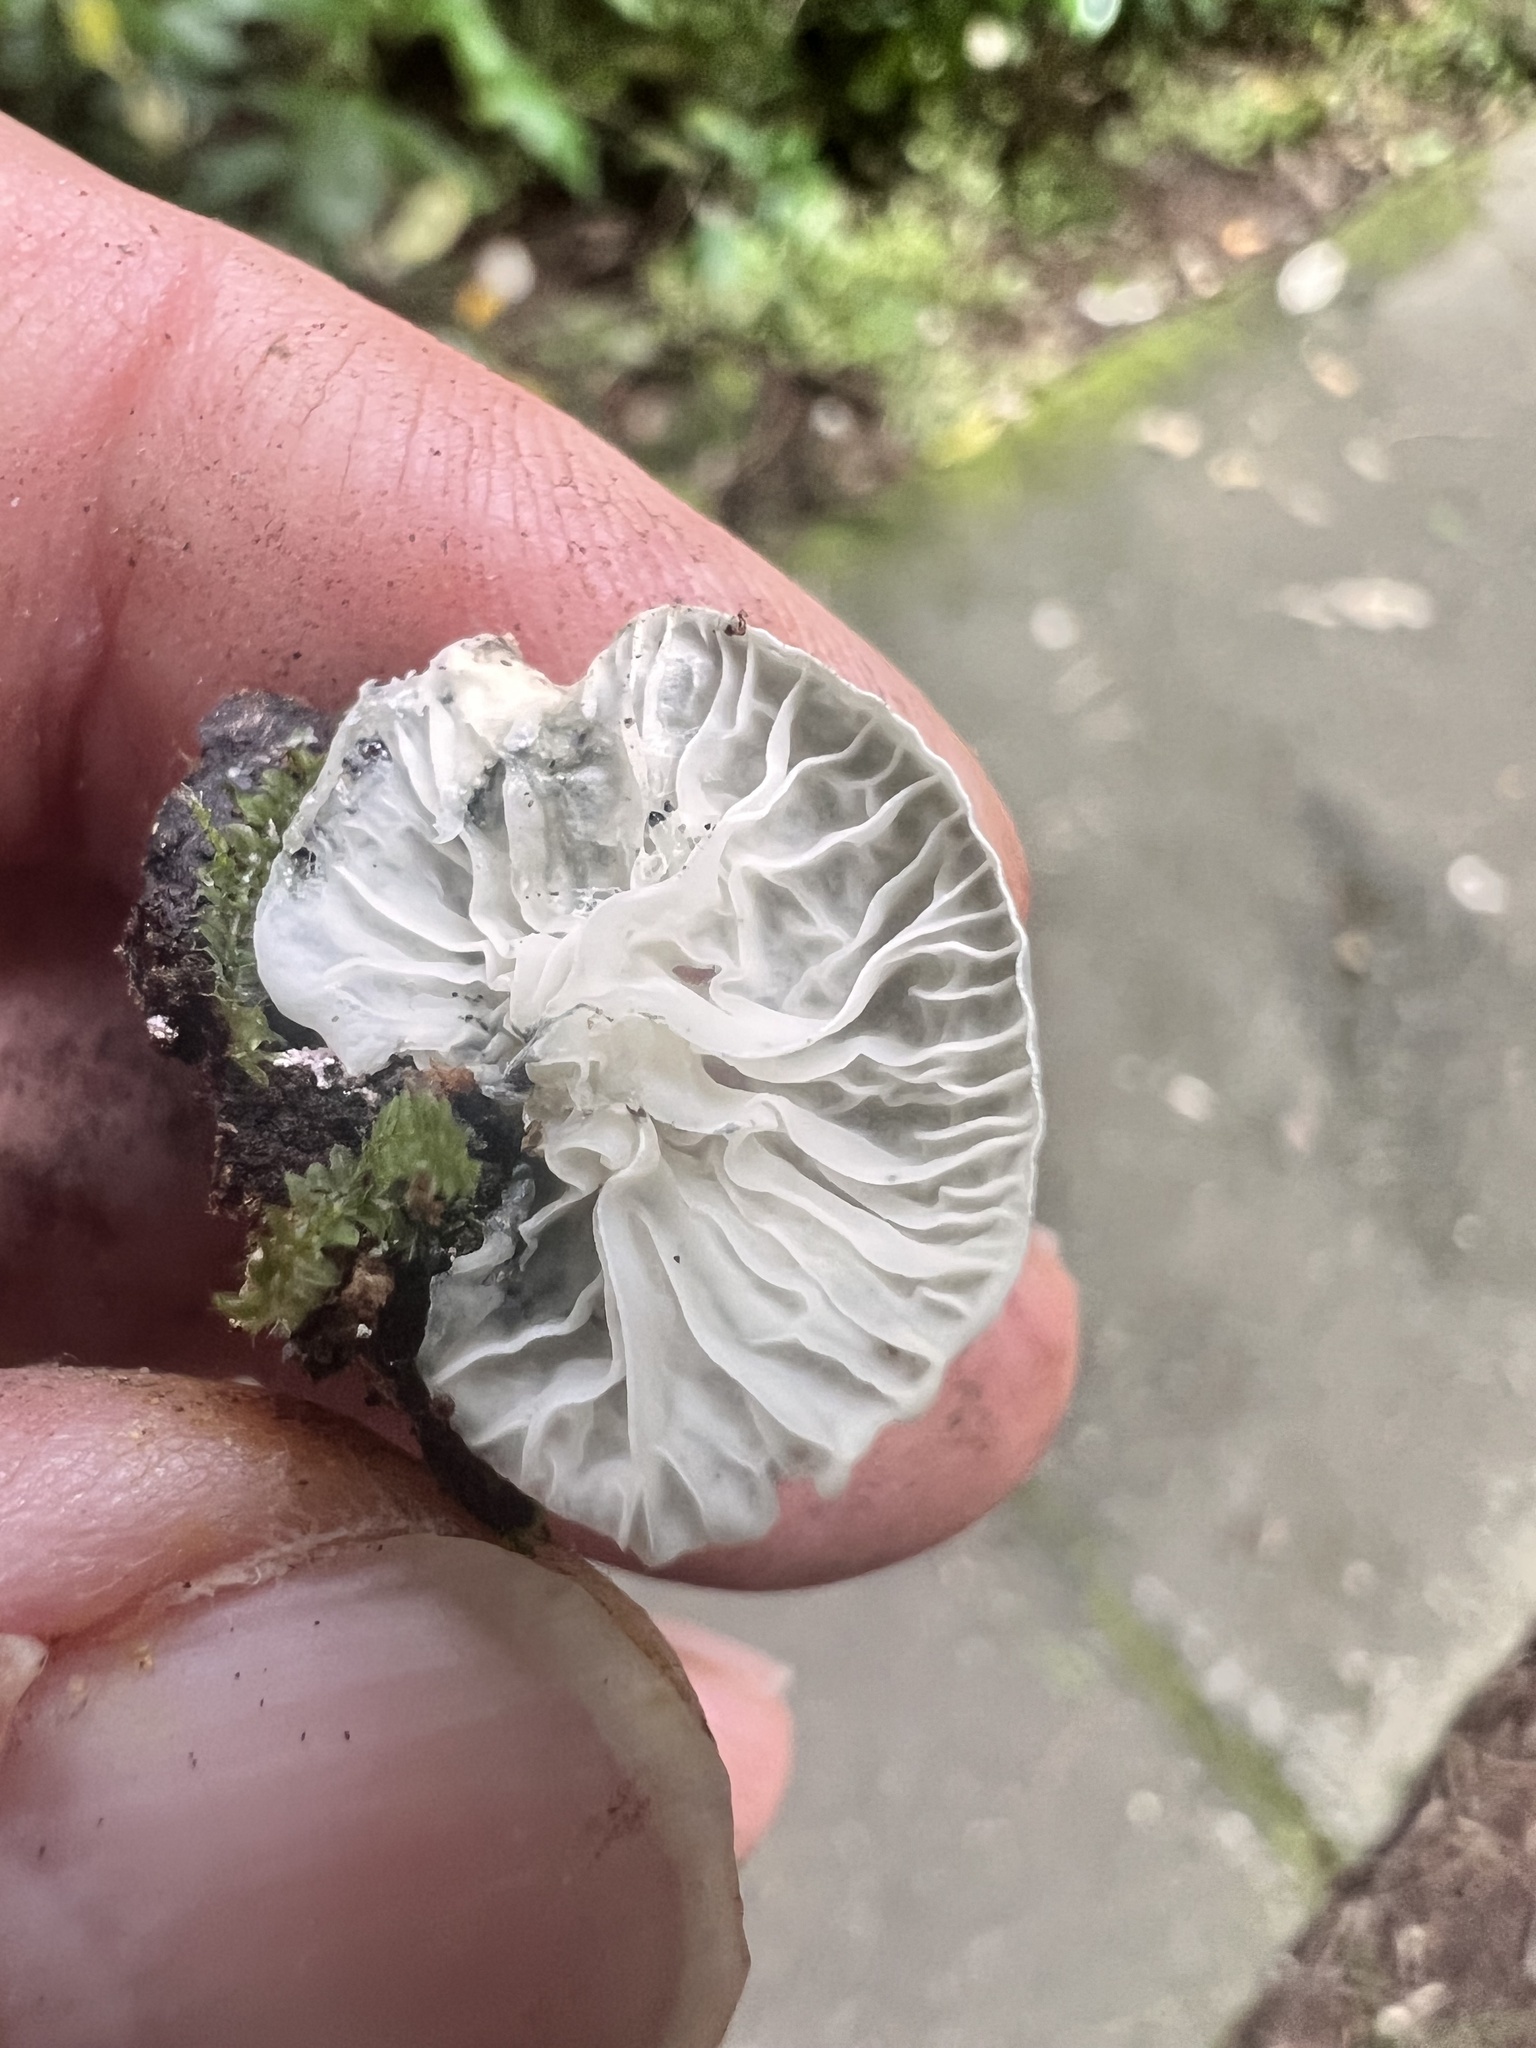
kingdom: Fungi
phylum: Basidiomycota
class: Agaricomycetes
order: Agaricales
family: Marasmiaceae
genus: Campanella
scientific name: Campanella tristis
